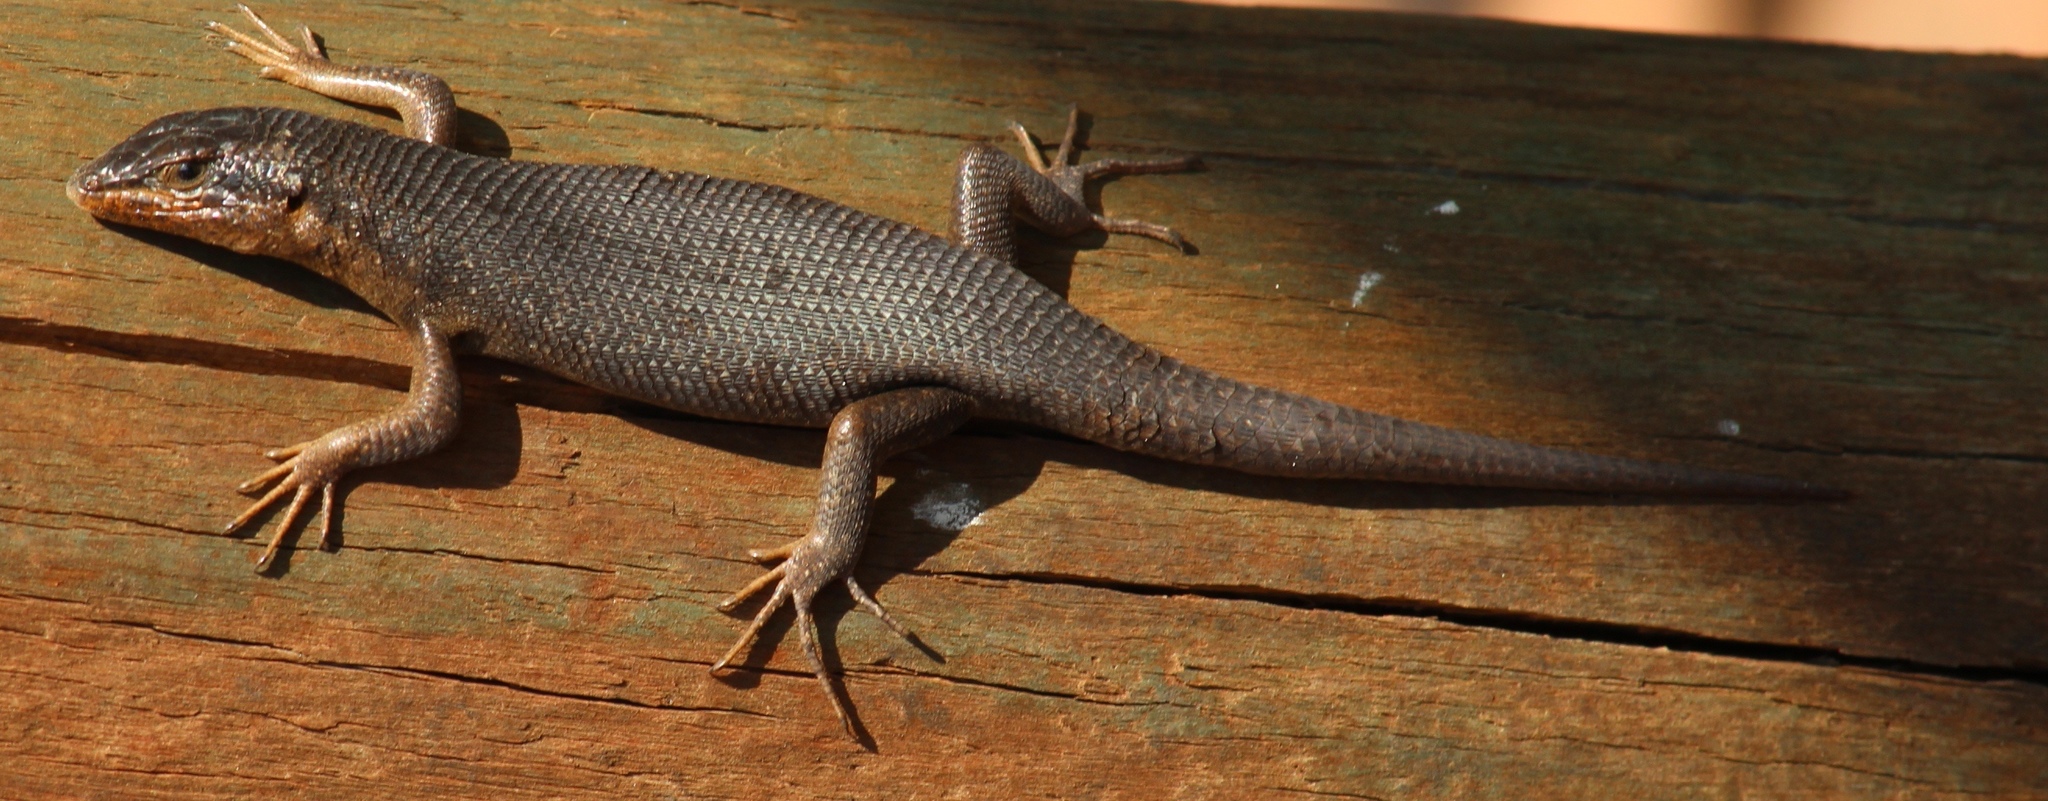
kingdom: Animalia
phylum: Chordata
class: Squamata
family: Scincidae
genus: Trachylepis
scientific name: Trachylepis sparsa
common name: Karasburg tree skink
